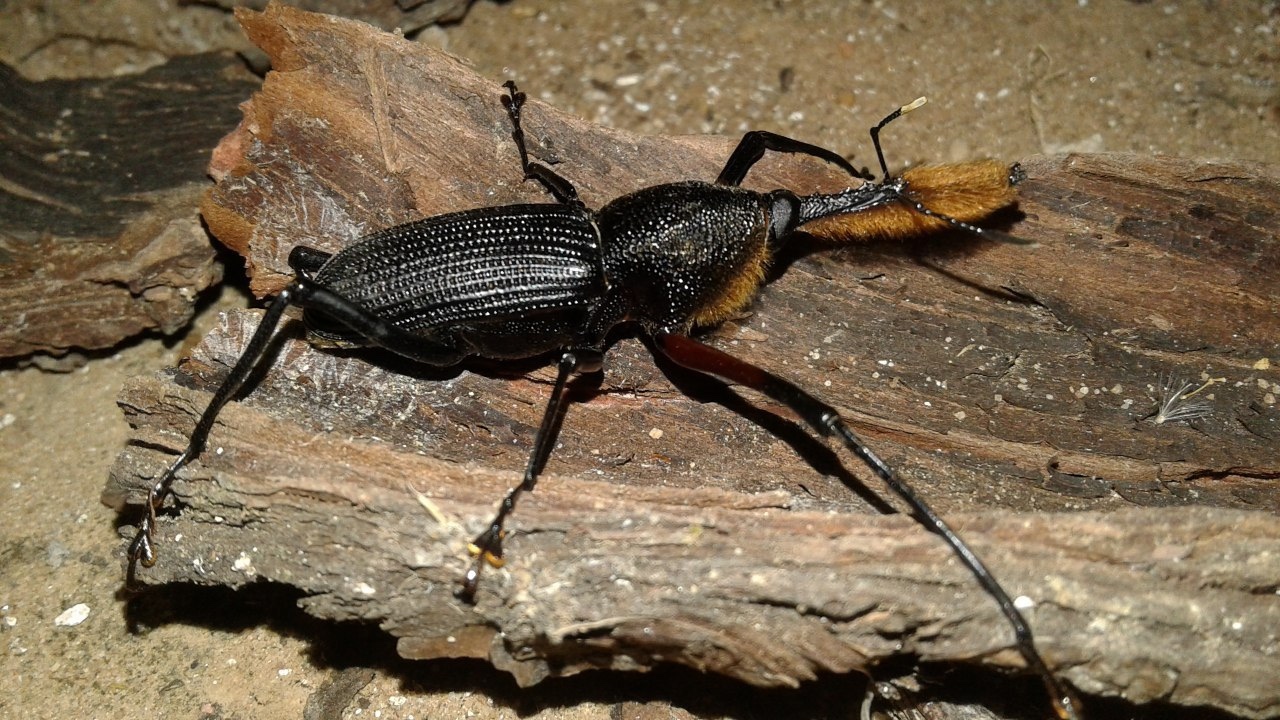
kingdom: Animalia
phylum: Arthropoda
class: Insecta
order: Coleoptera
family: Dryophthoridae
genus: Rhinostomus
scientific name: Rhinostomus barbirostris
